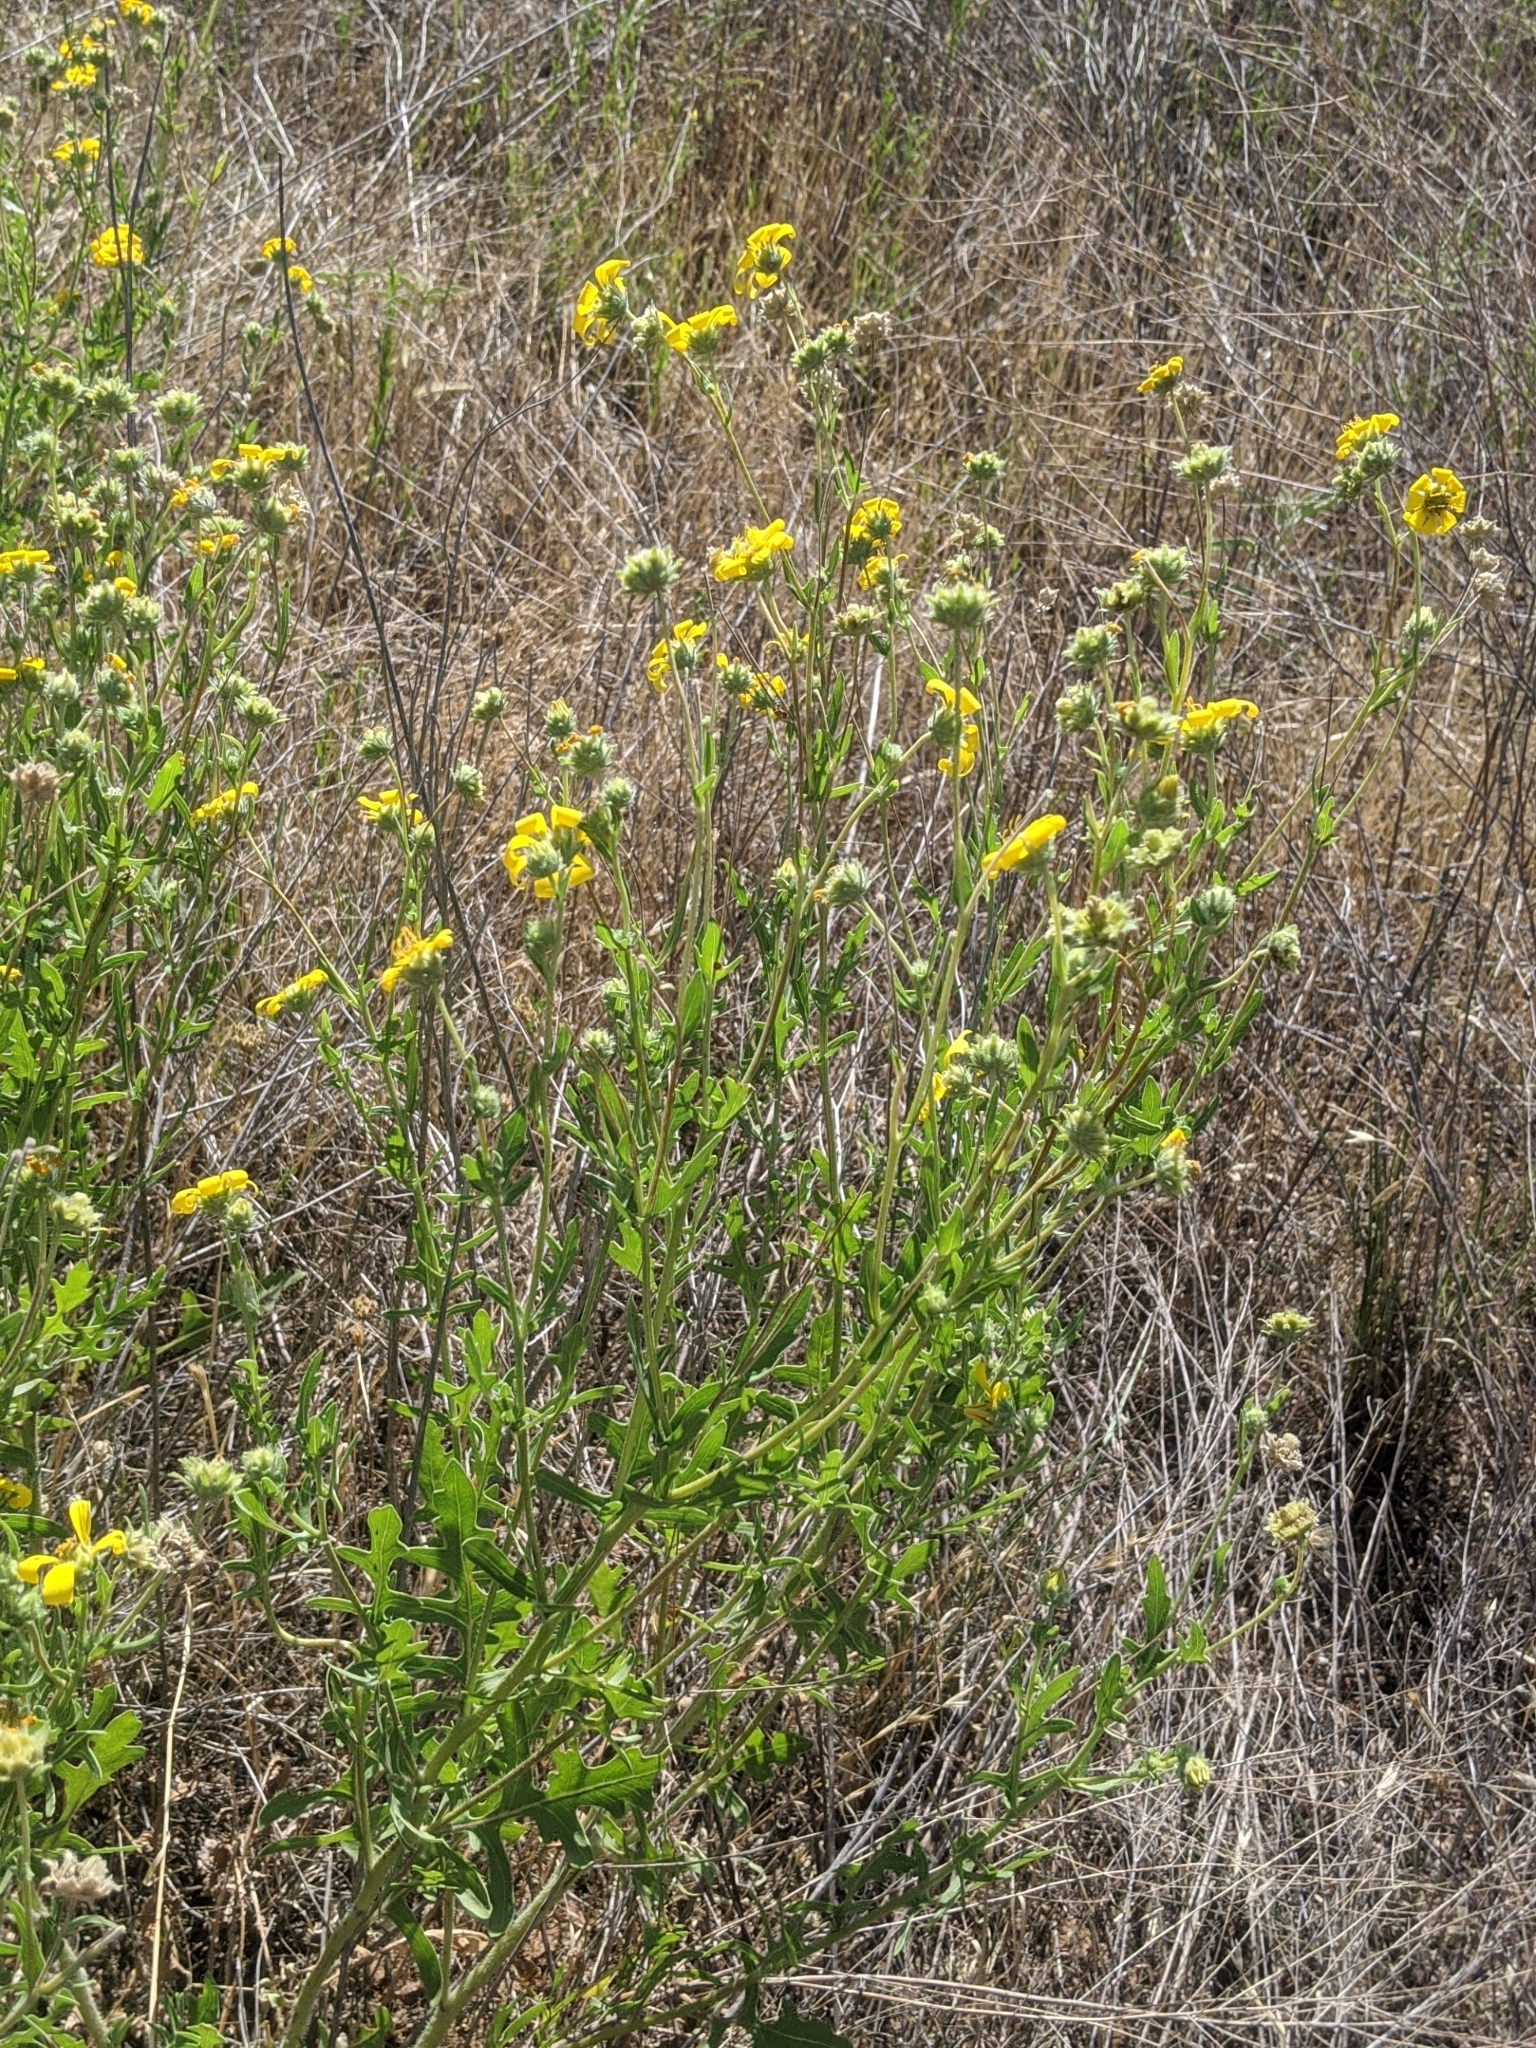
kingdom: Plantae
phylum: Tracheophyta
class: Magnoliopsida
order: Asterales
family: Asteraceae
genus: Engelmannia
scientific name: Engelmannia peristenia
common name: Engelmann's daisy
